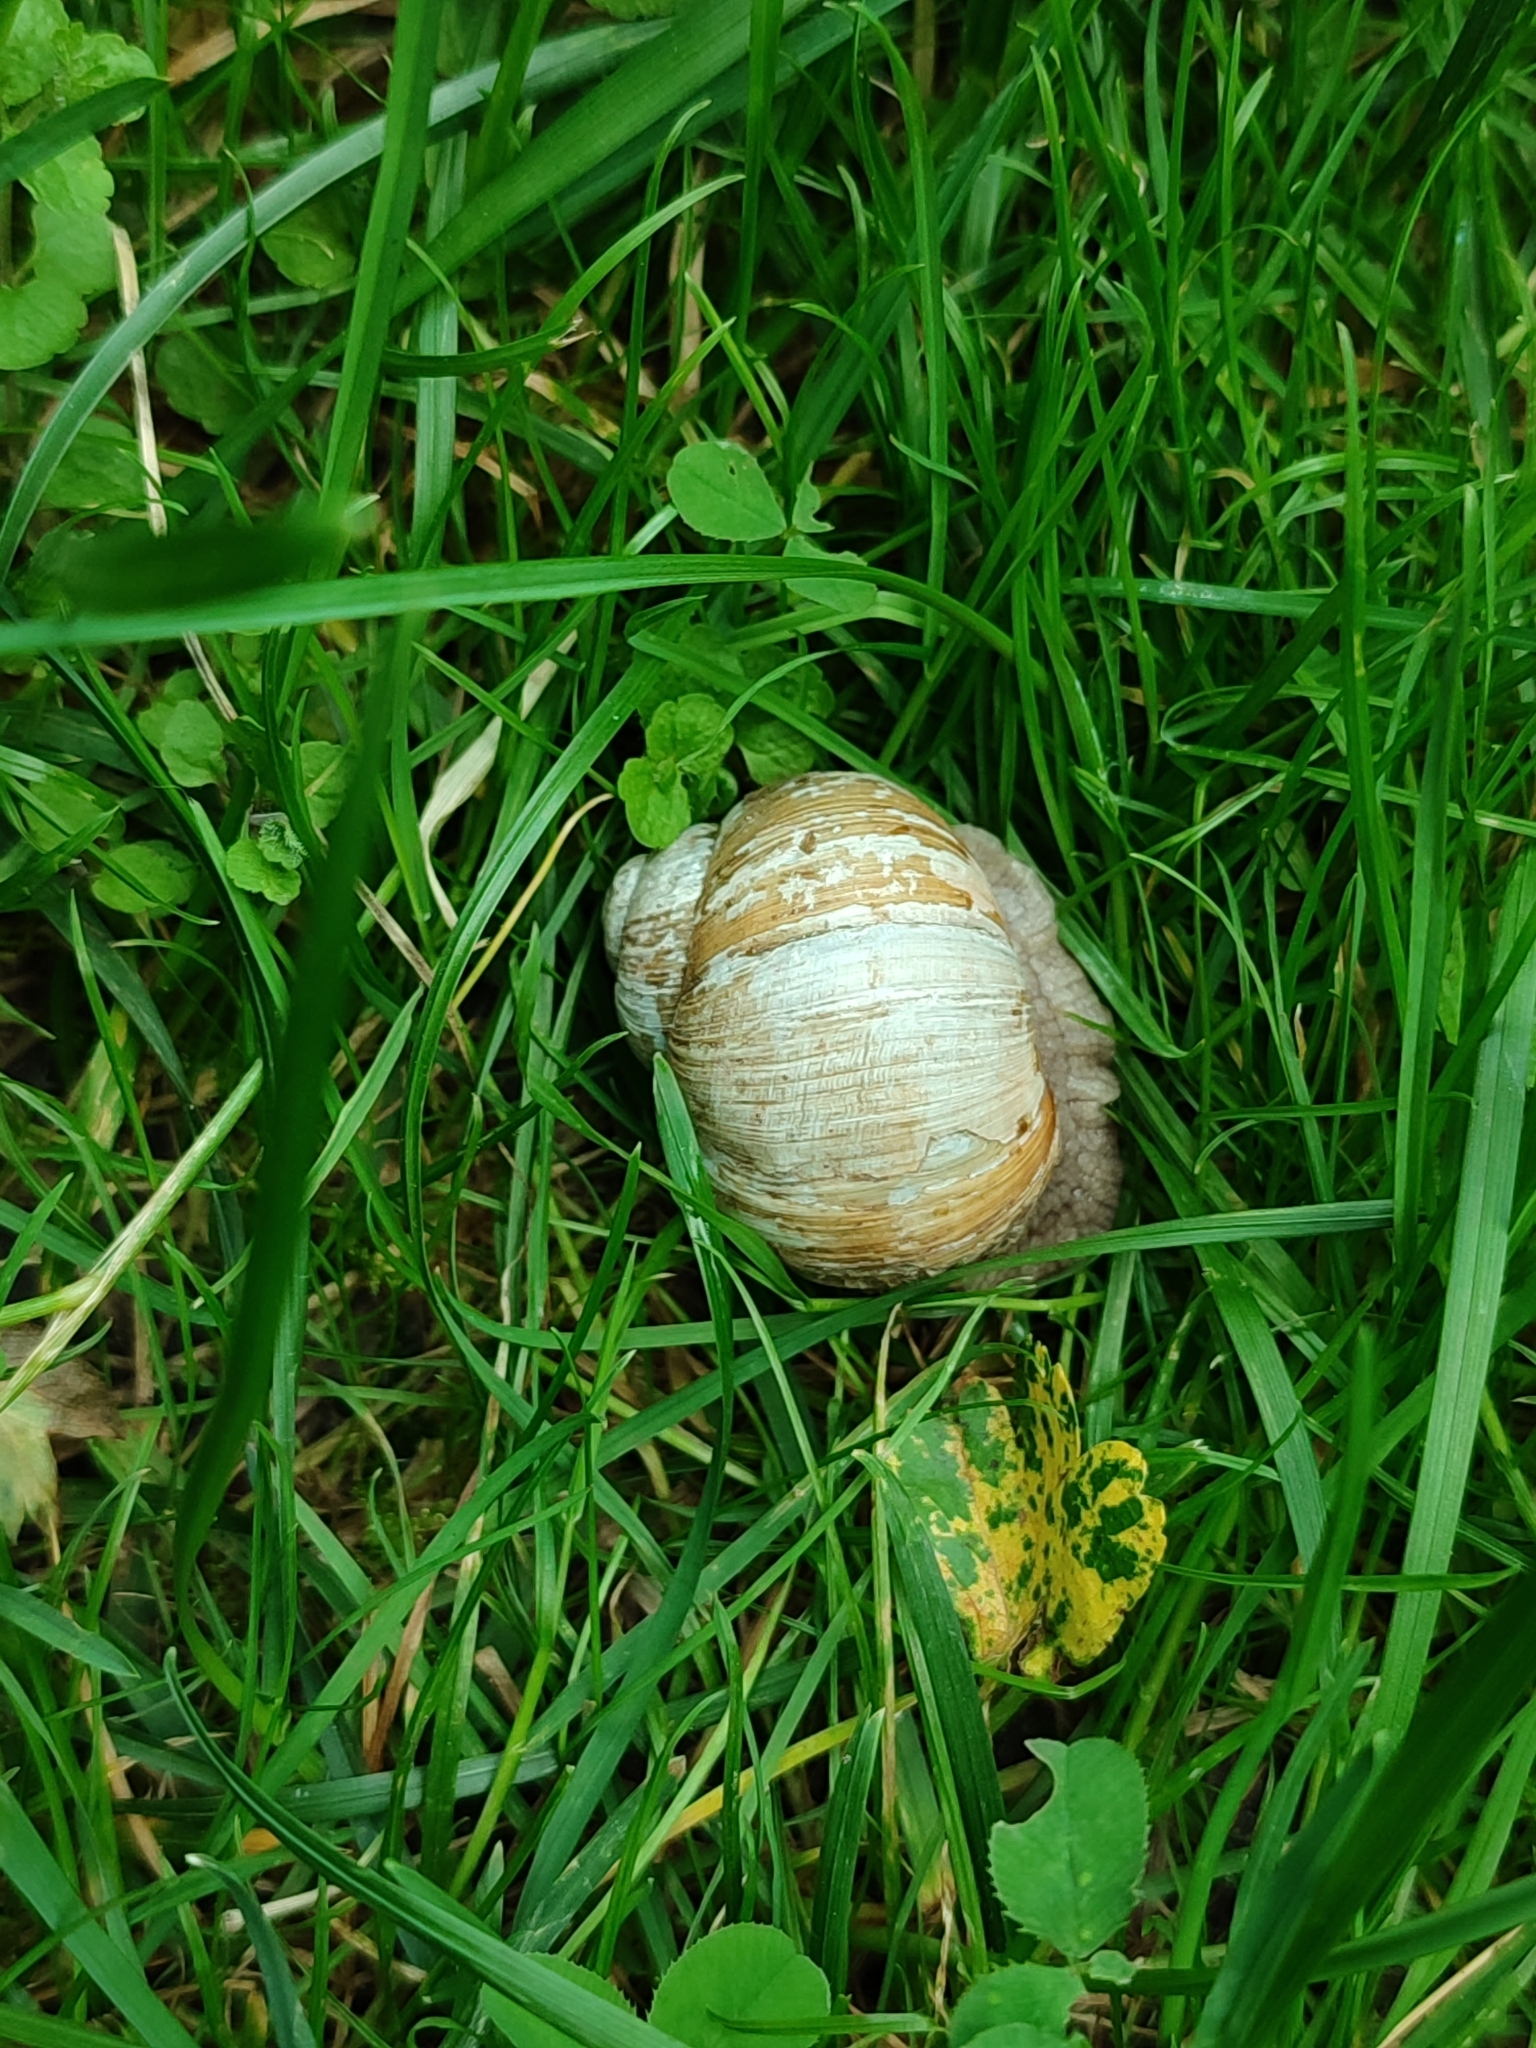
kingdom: Animalia
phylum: Mollusca
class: Gastropoda
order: Stylommatophora
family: Helicidae
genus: Helix
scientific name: Helix pomatia
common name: Roman snail
